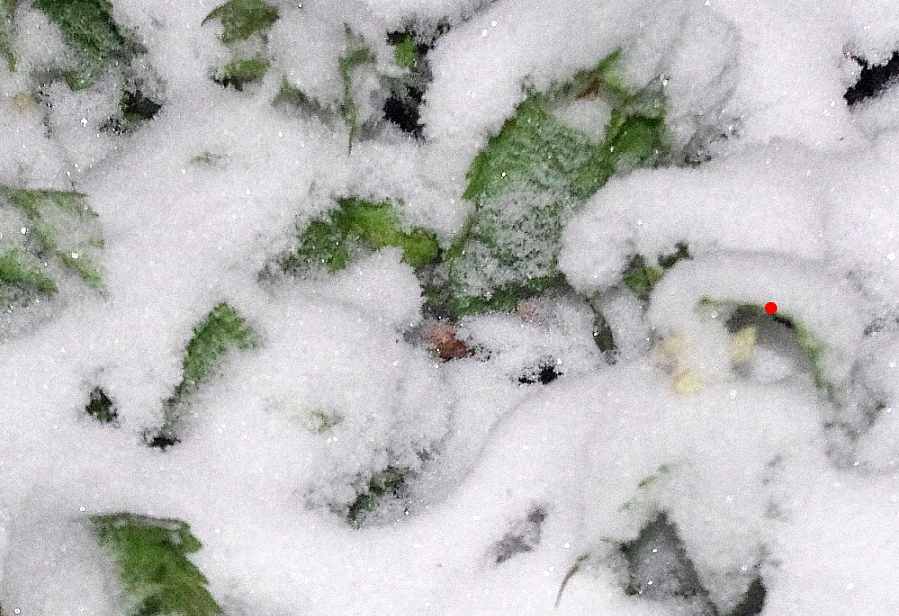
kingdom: Plantae
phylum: Tracheophyta
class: Magnoliopsida
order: Lamiales
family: Lamiaceae
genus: Lamium
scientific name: Lamium album
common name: White dead-nettle
